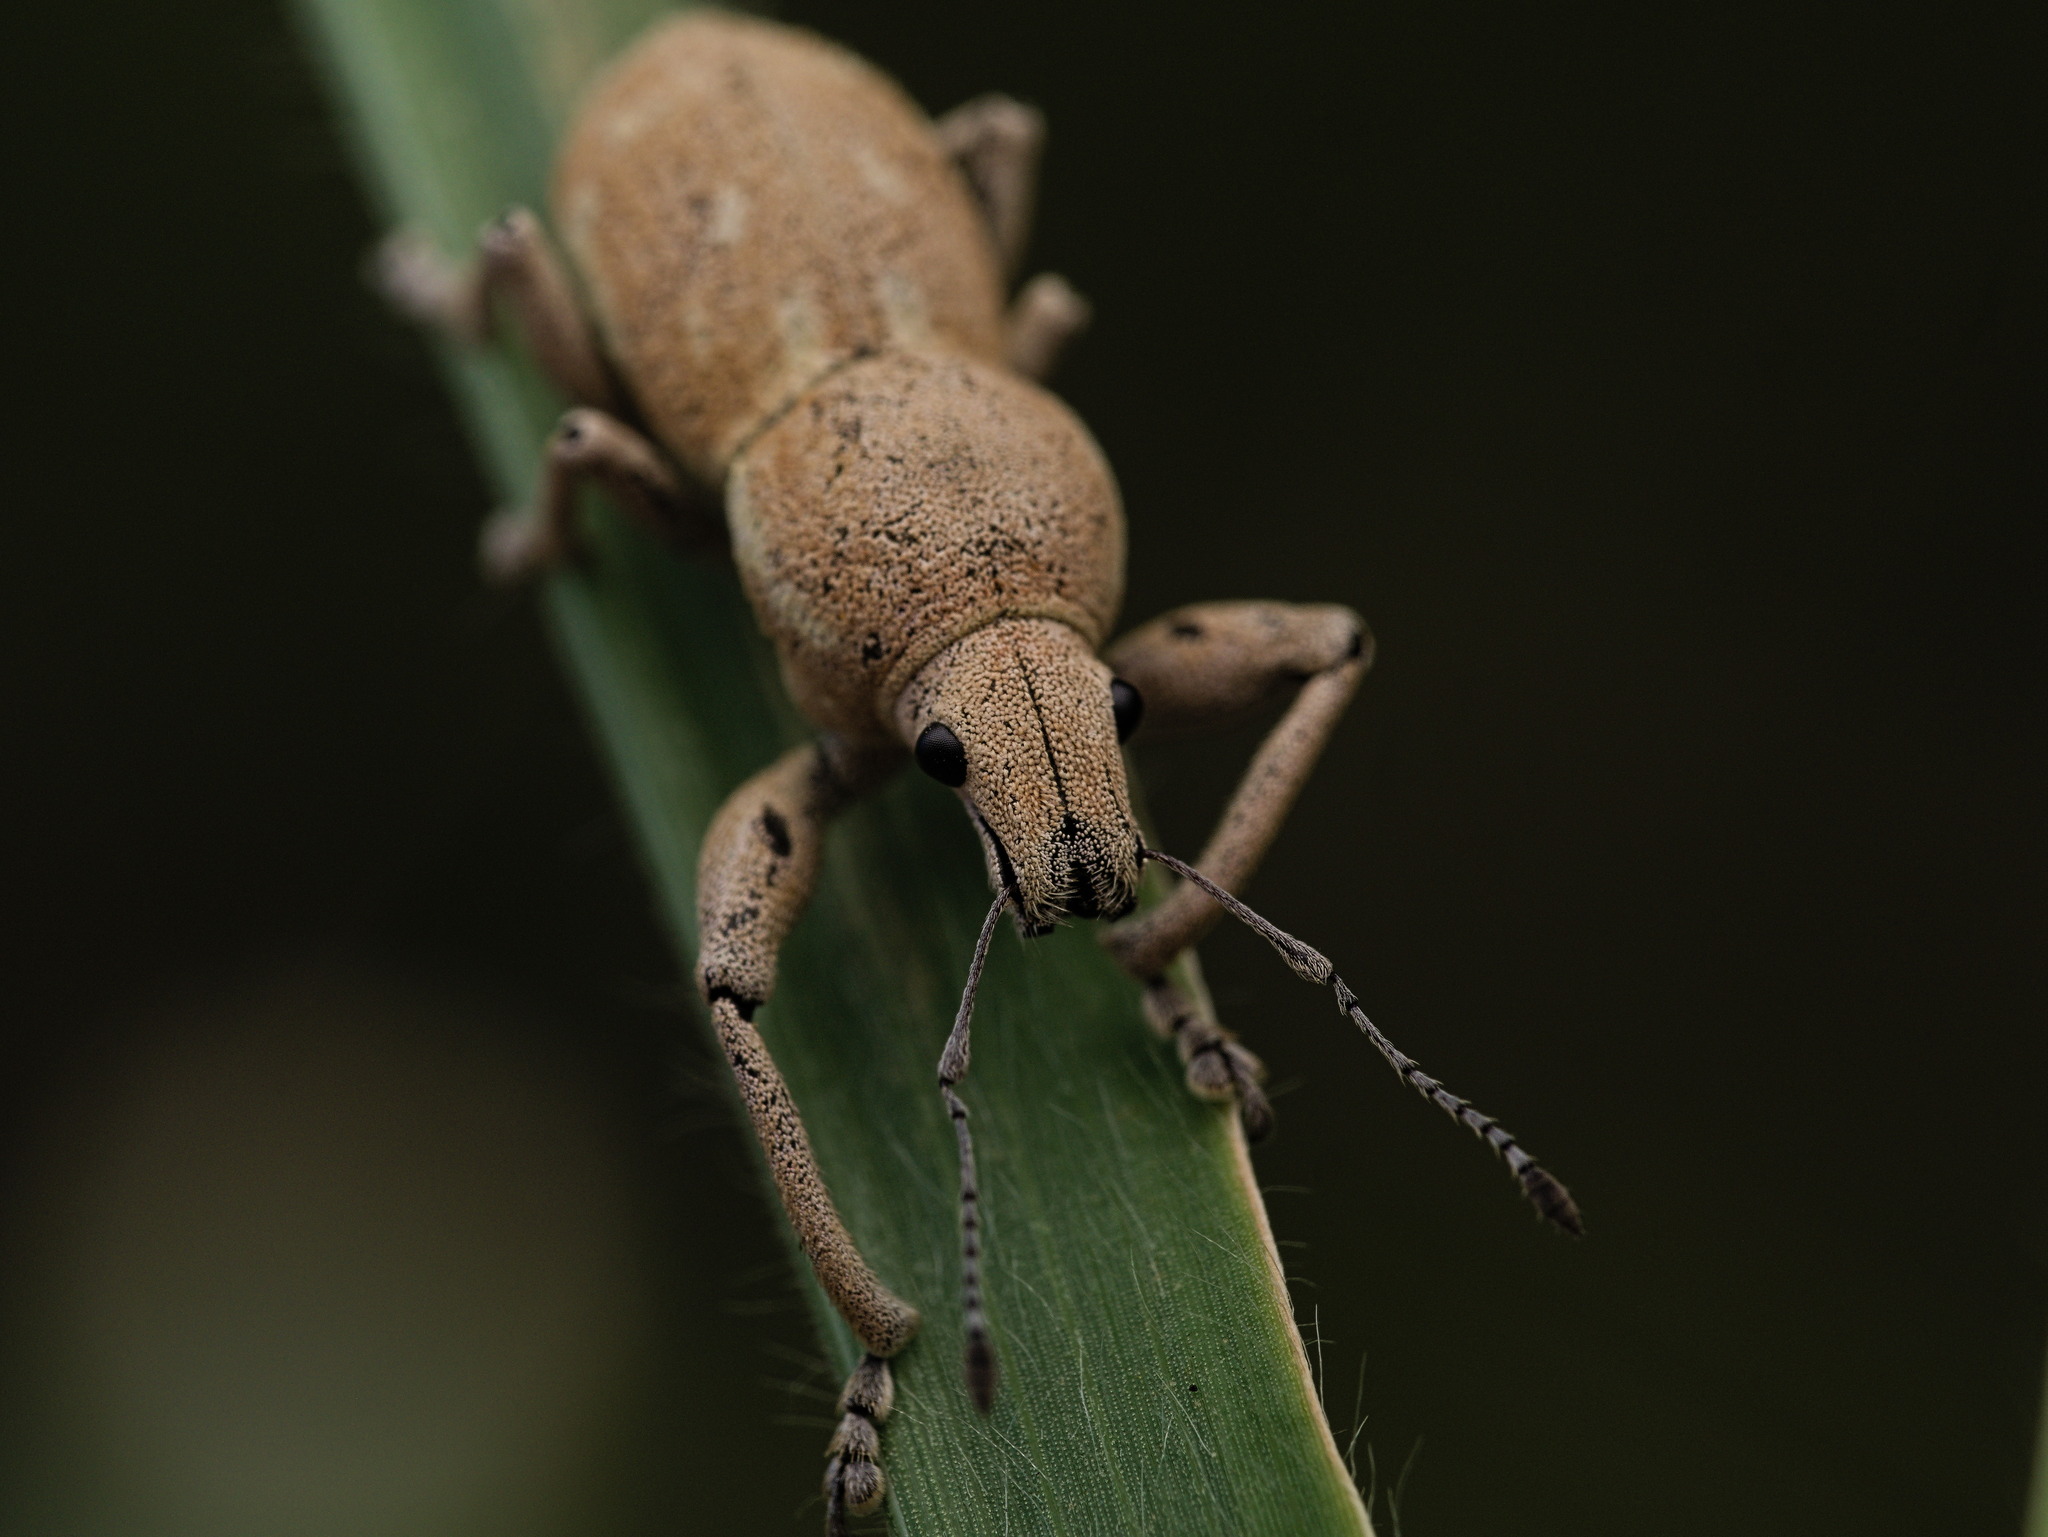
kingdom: Animalia
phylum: Arthropoda
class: Insecta
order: Coleoptera
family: Curculionidae
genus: Phacepholis
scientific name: Phacepholis
